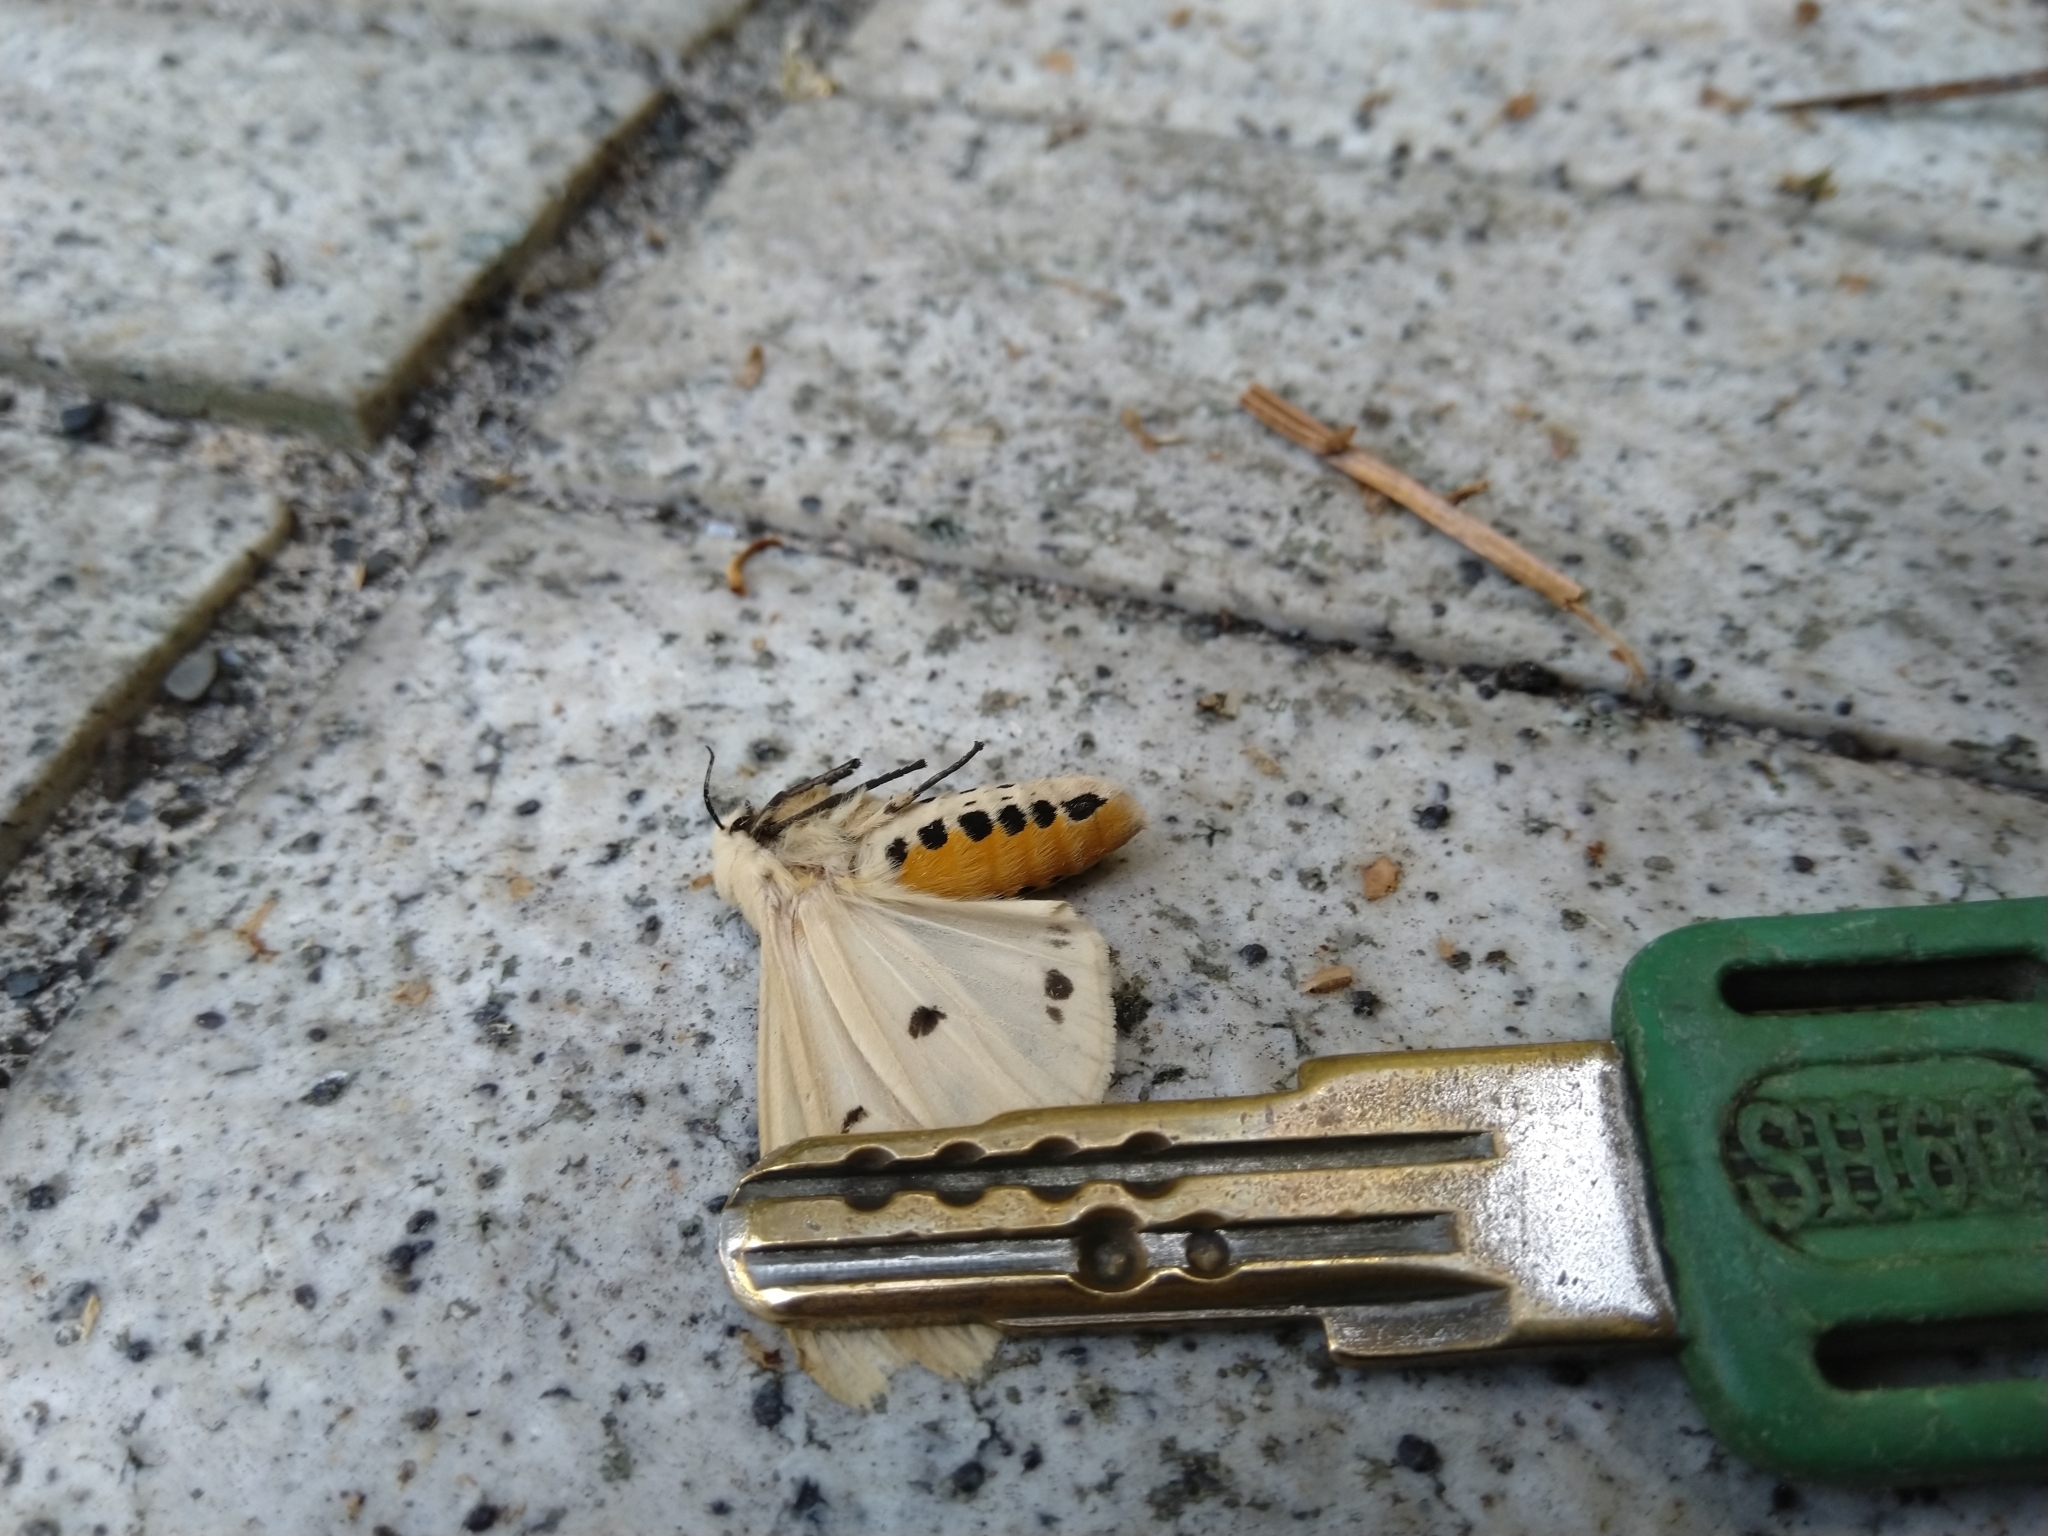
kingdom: Animalia
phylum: Arthropoda
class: Insecta
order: Lepidoptera
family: Erebidae
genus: Spilarctia
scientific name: Spilarctia subtestacea
